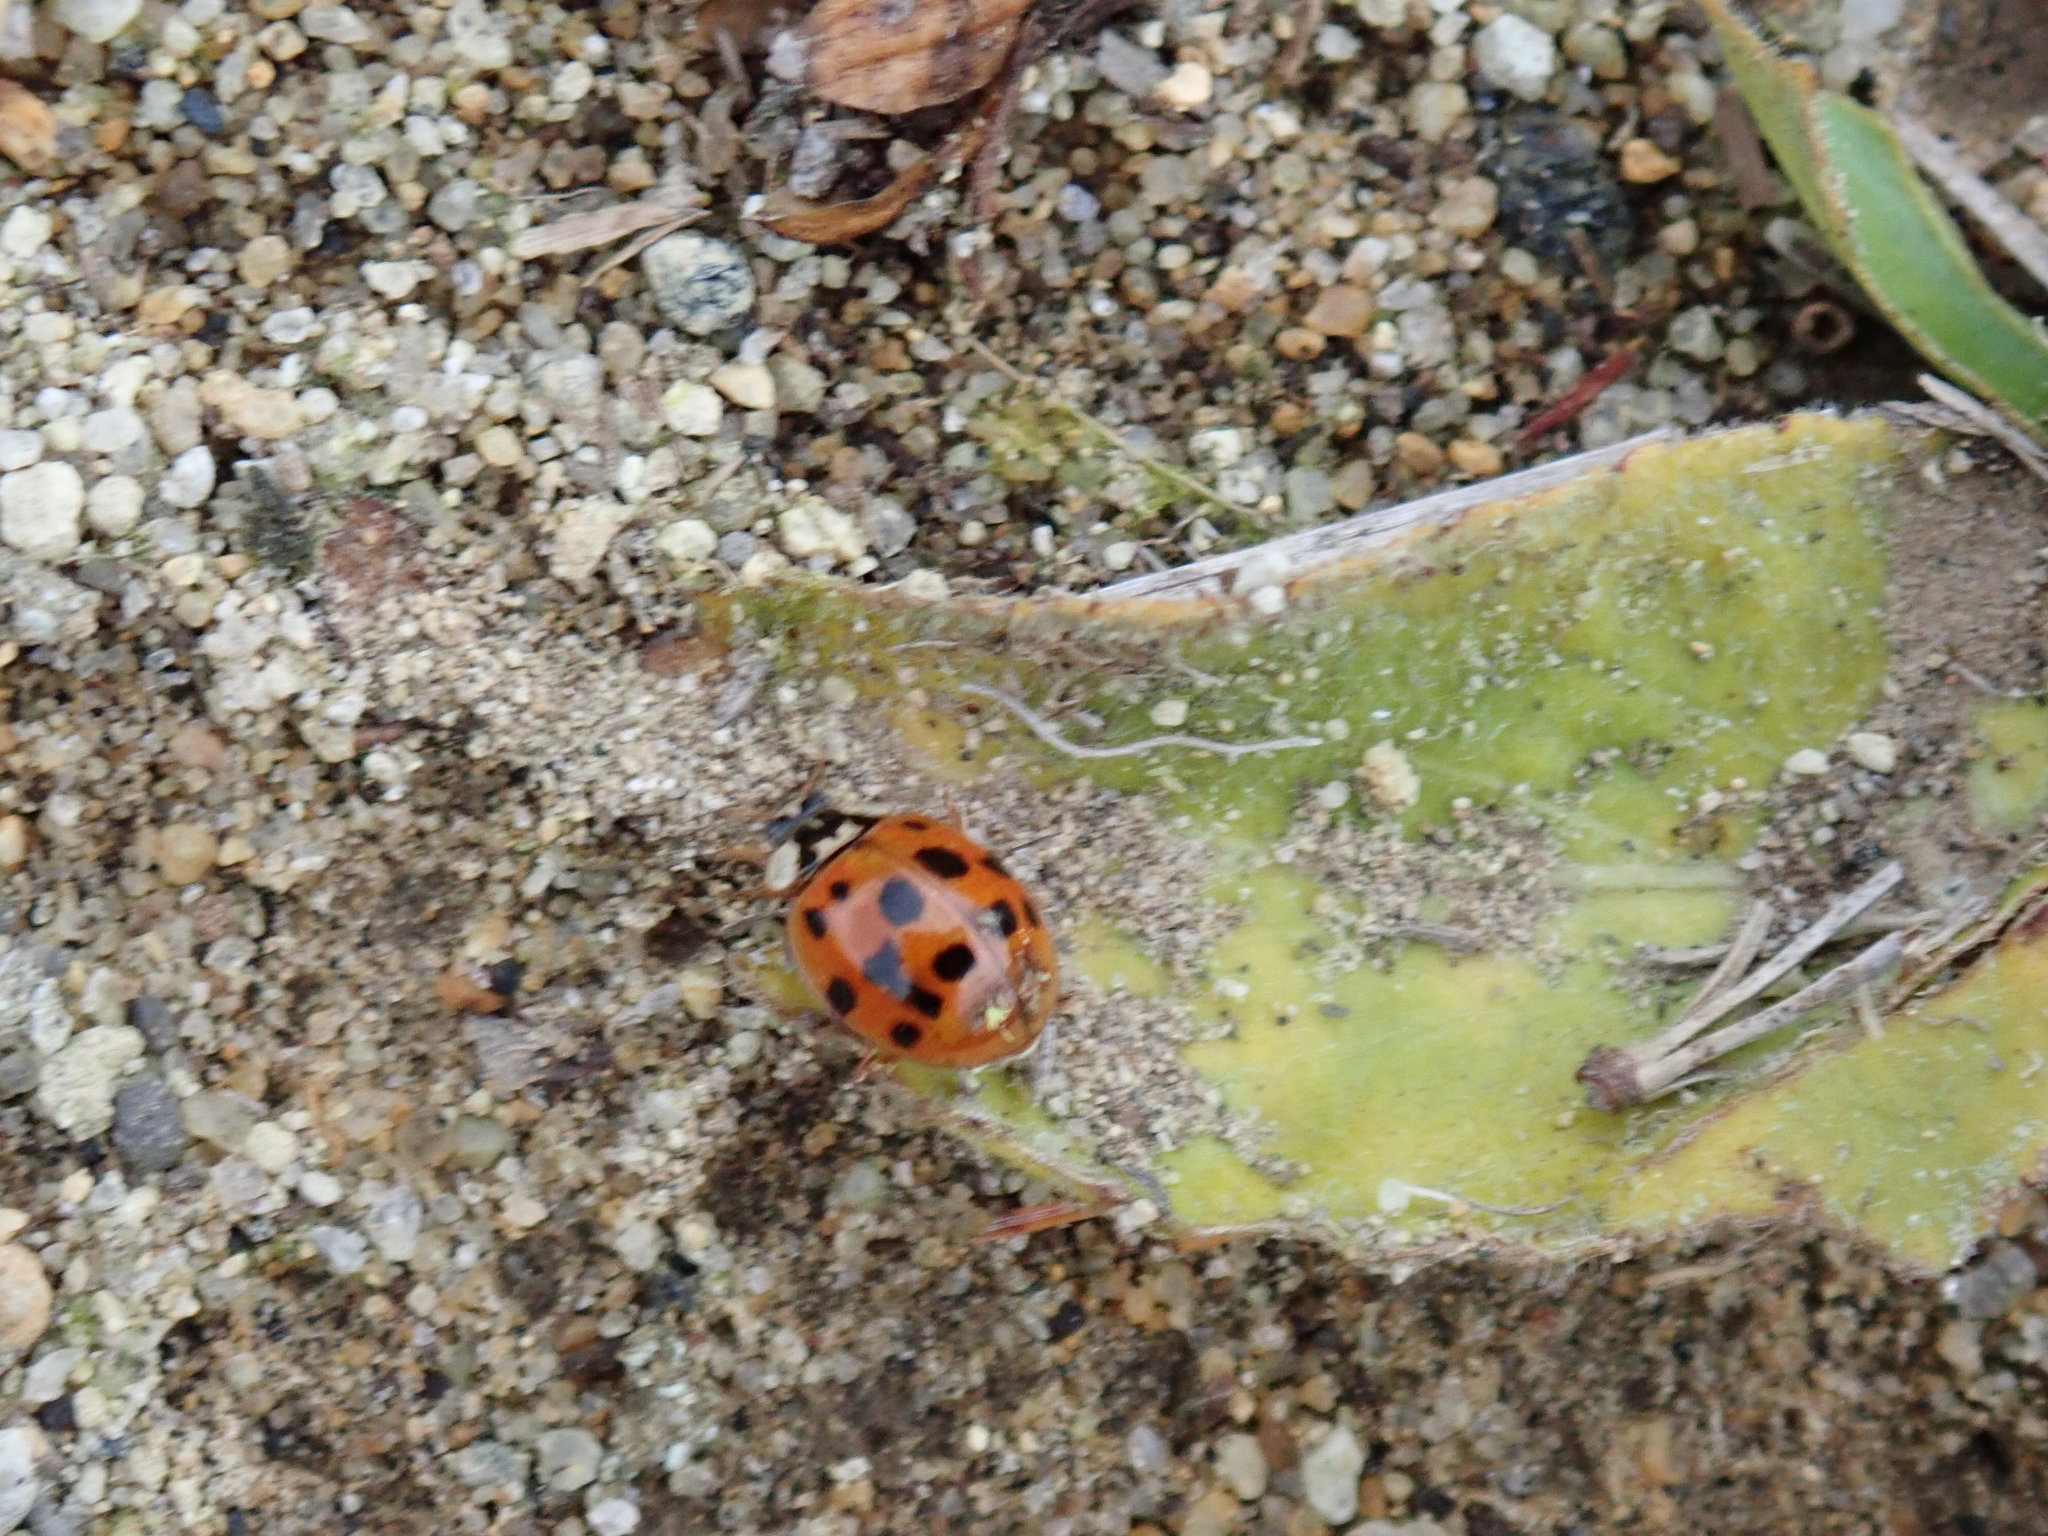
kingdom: Animalia
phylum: Arthropoda
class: Insecta
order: Coleoptera
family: Coccinellidae
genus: Harmonia
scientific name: Harmonia axyridis
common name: Harlequin ladybird
